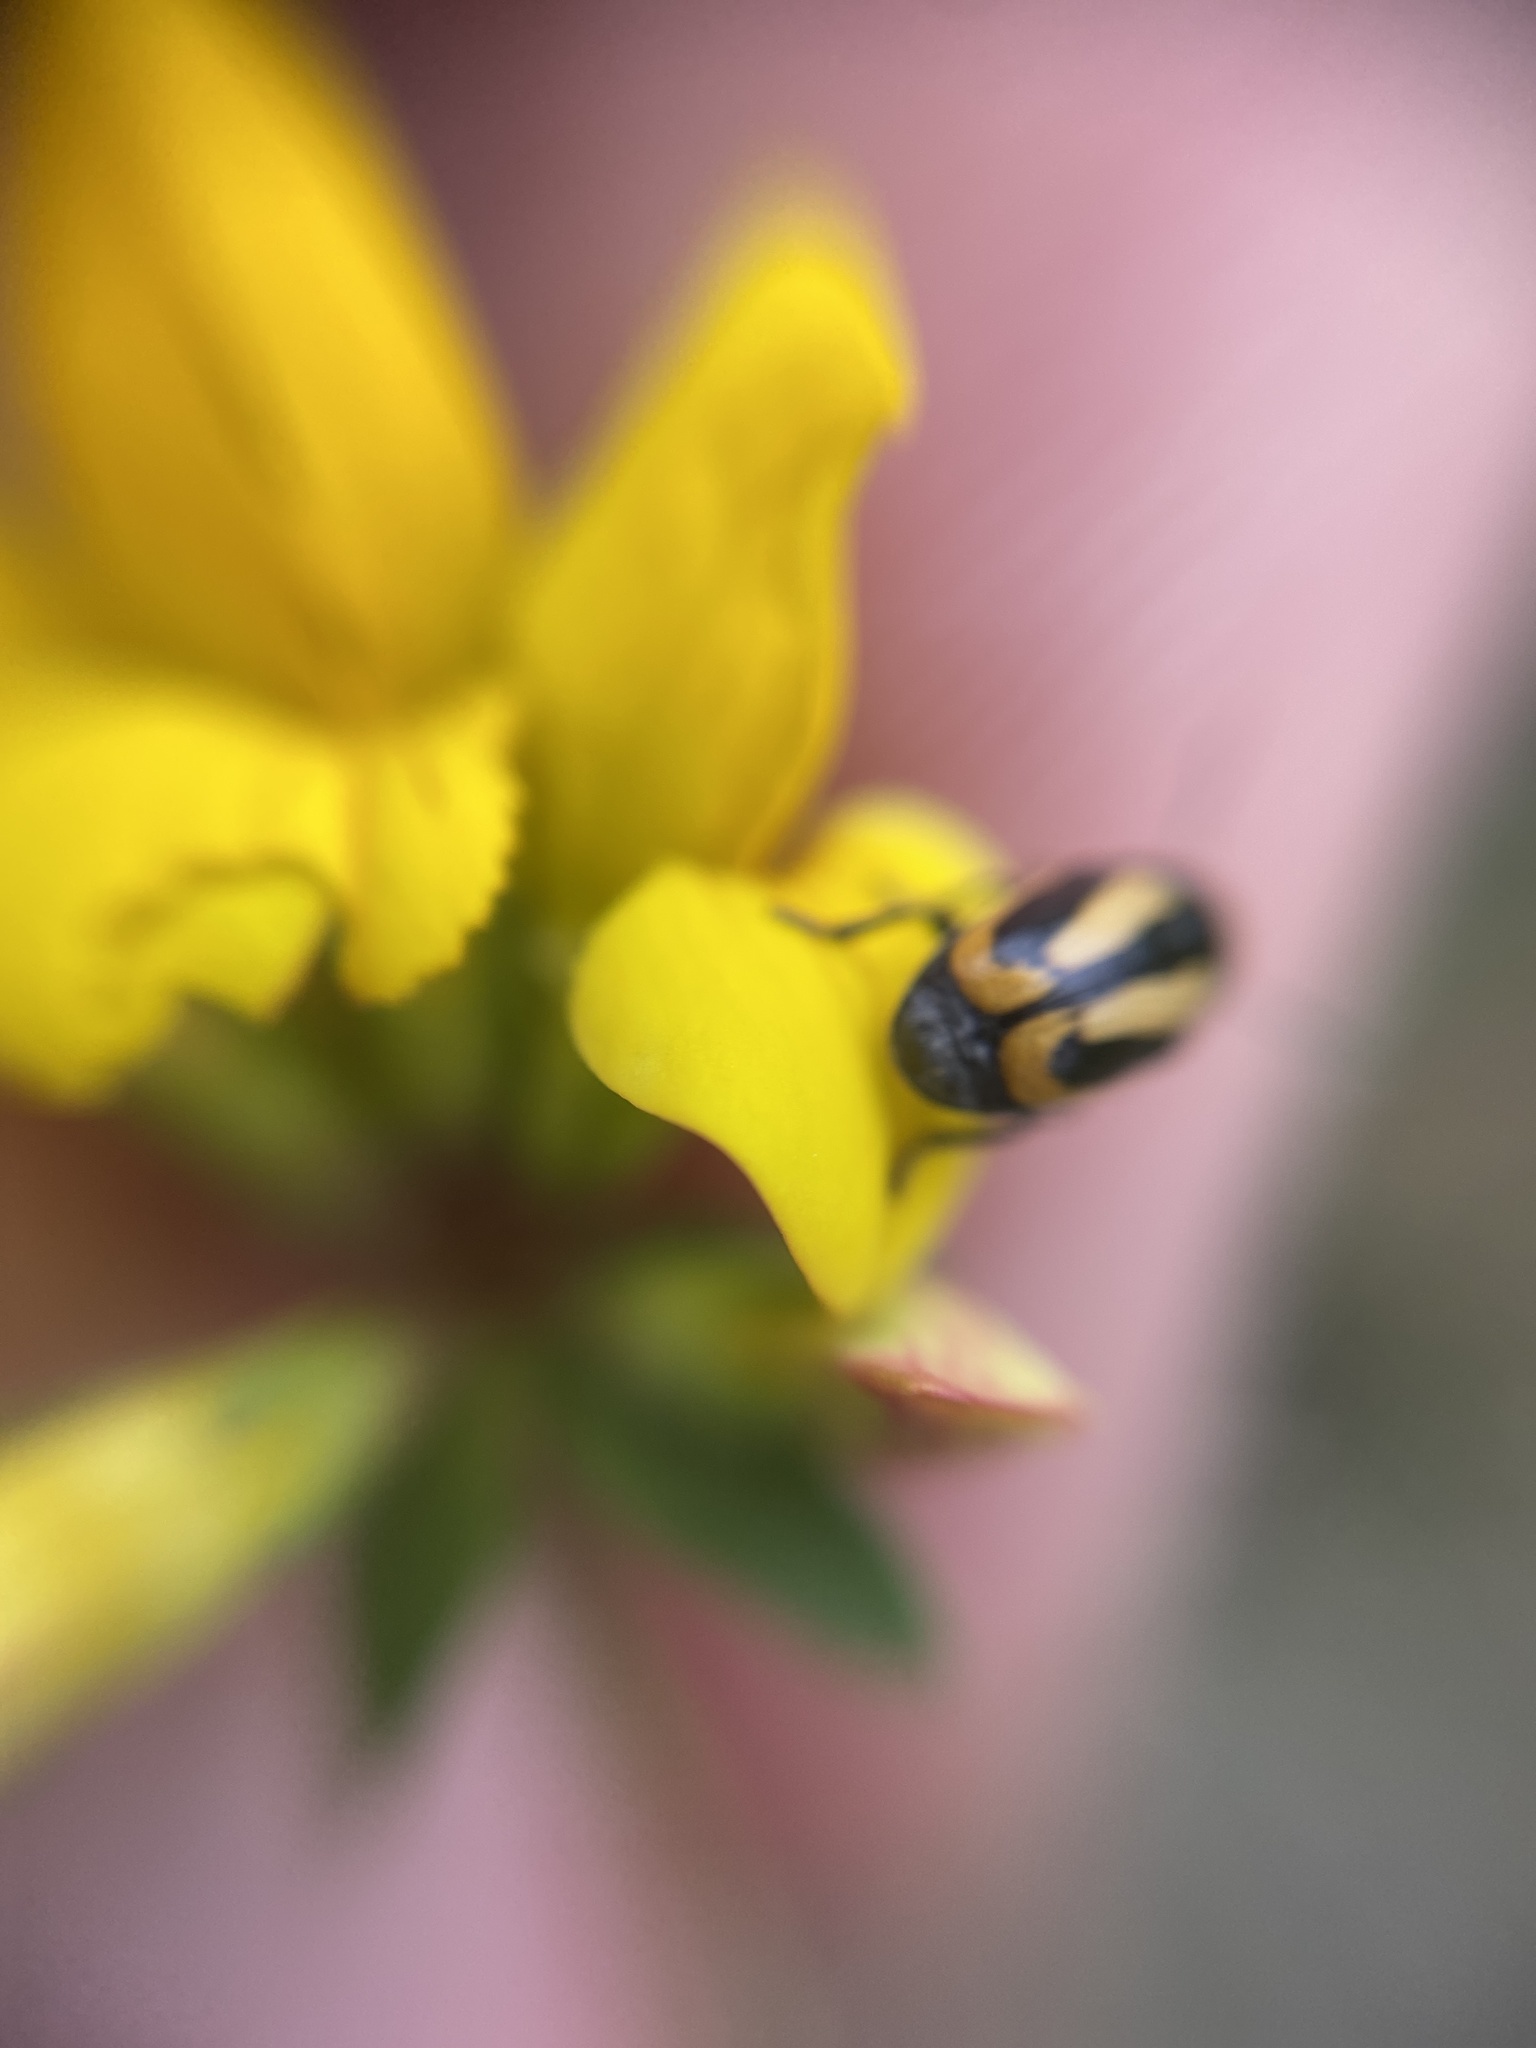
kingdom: Animalia
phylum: Arthropoda
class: Insecta
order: Coleoptera
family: Chrysomelidae
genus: Acalymma
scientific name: Acalymma vittatum
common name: Striped cucumber beetle
